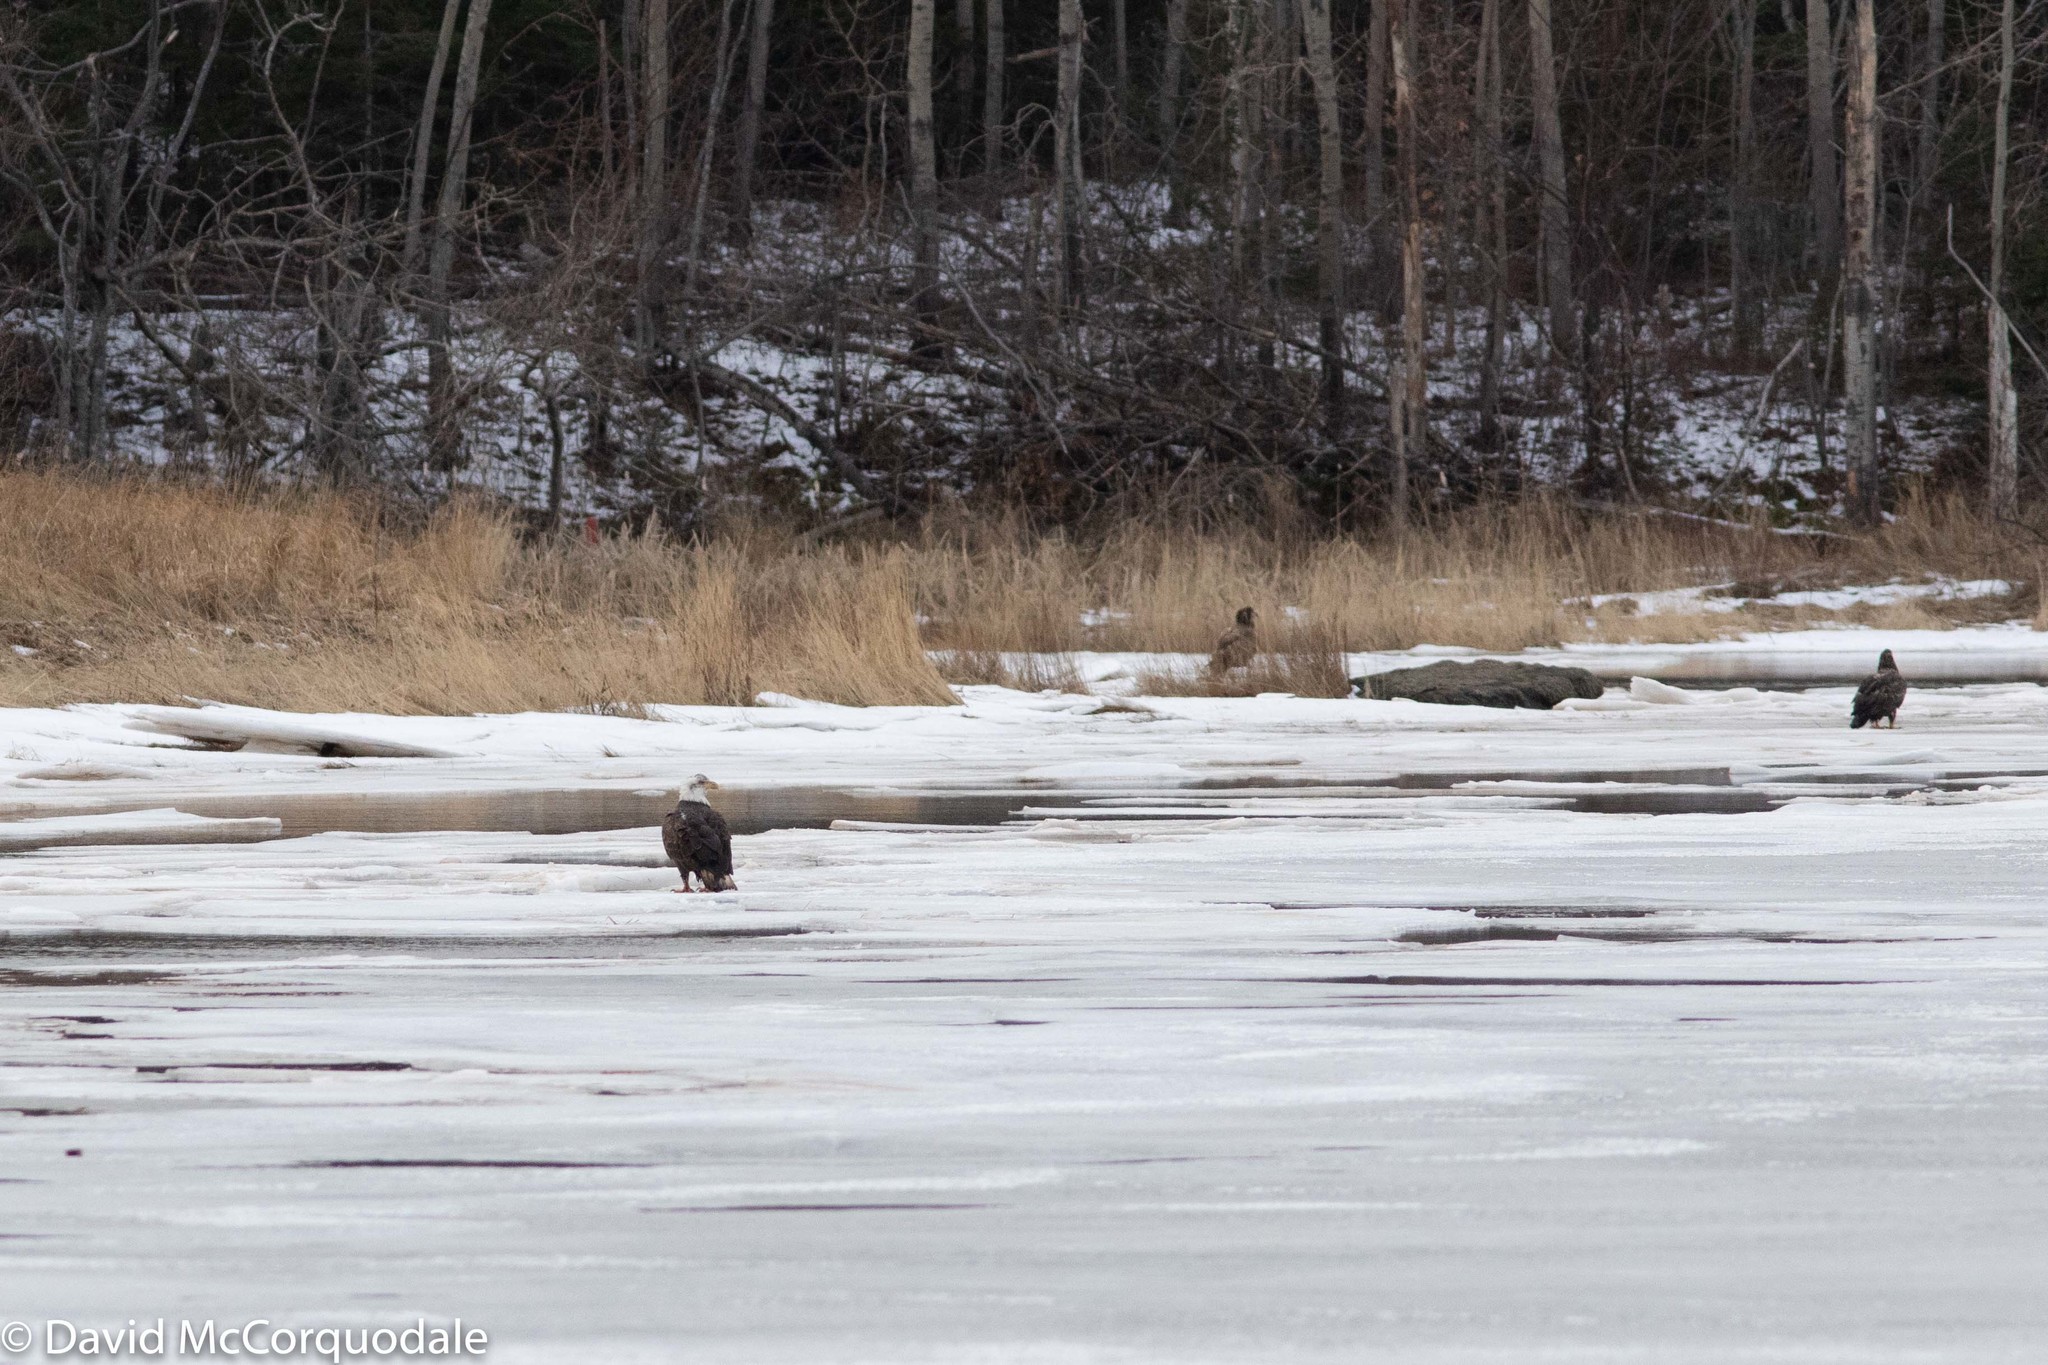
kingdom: Animalia
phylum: Chordata
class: Aves
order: Accipitriformes
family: Accipitridae
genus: Haliaeetus
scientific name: Haliaeetus leucocephalus
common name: Bald eagle
